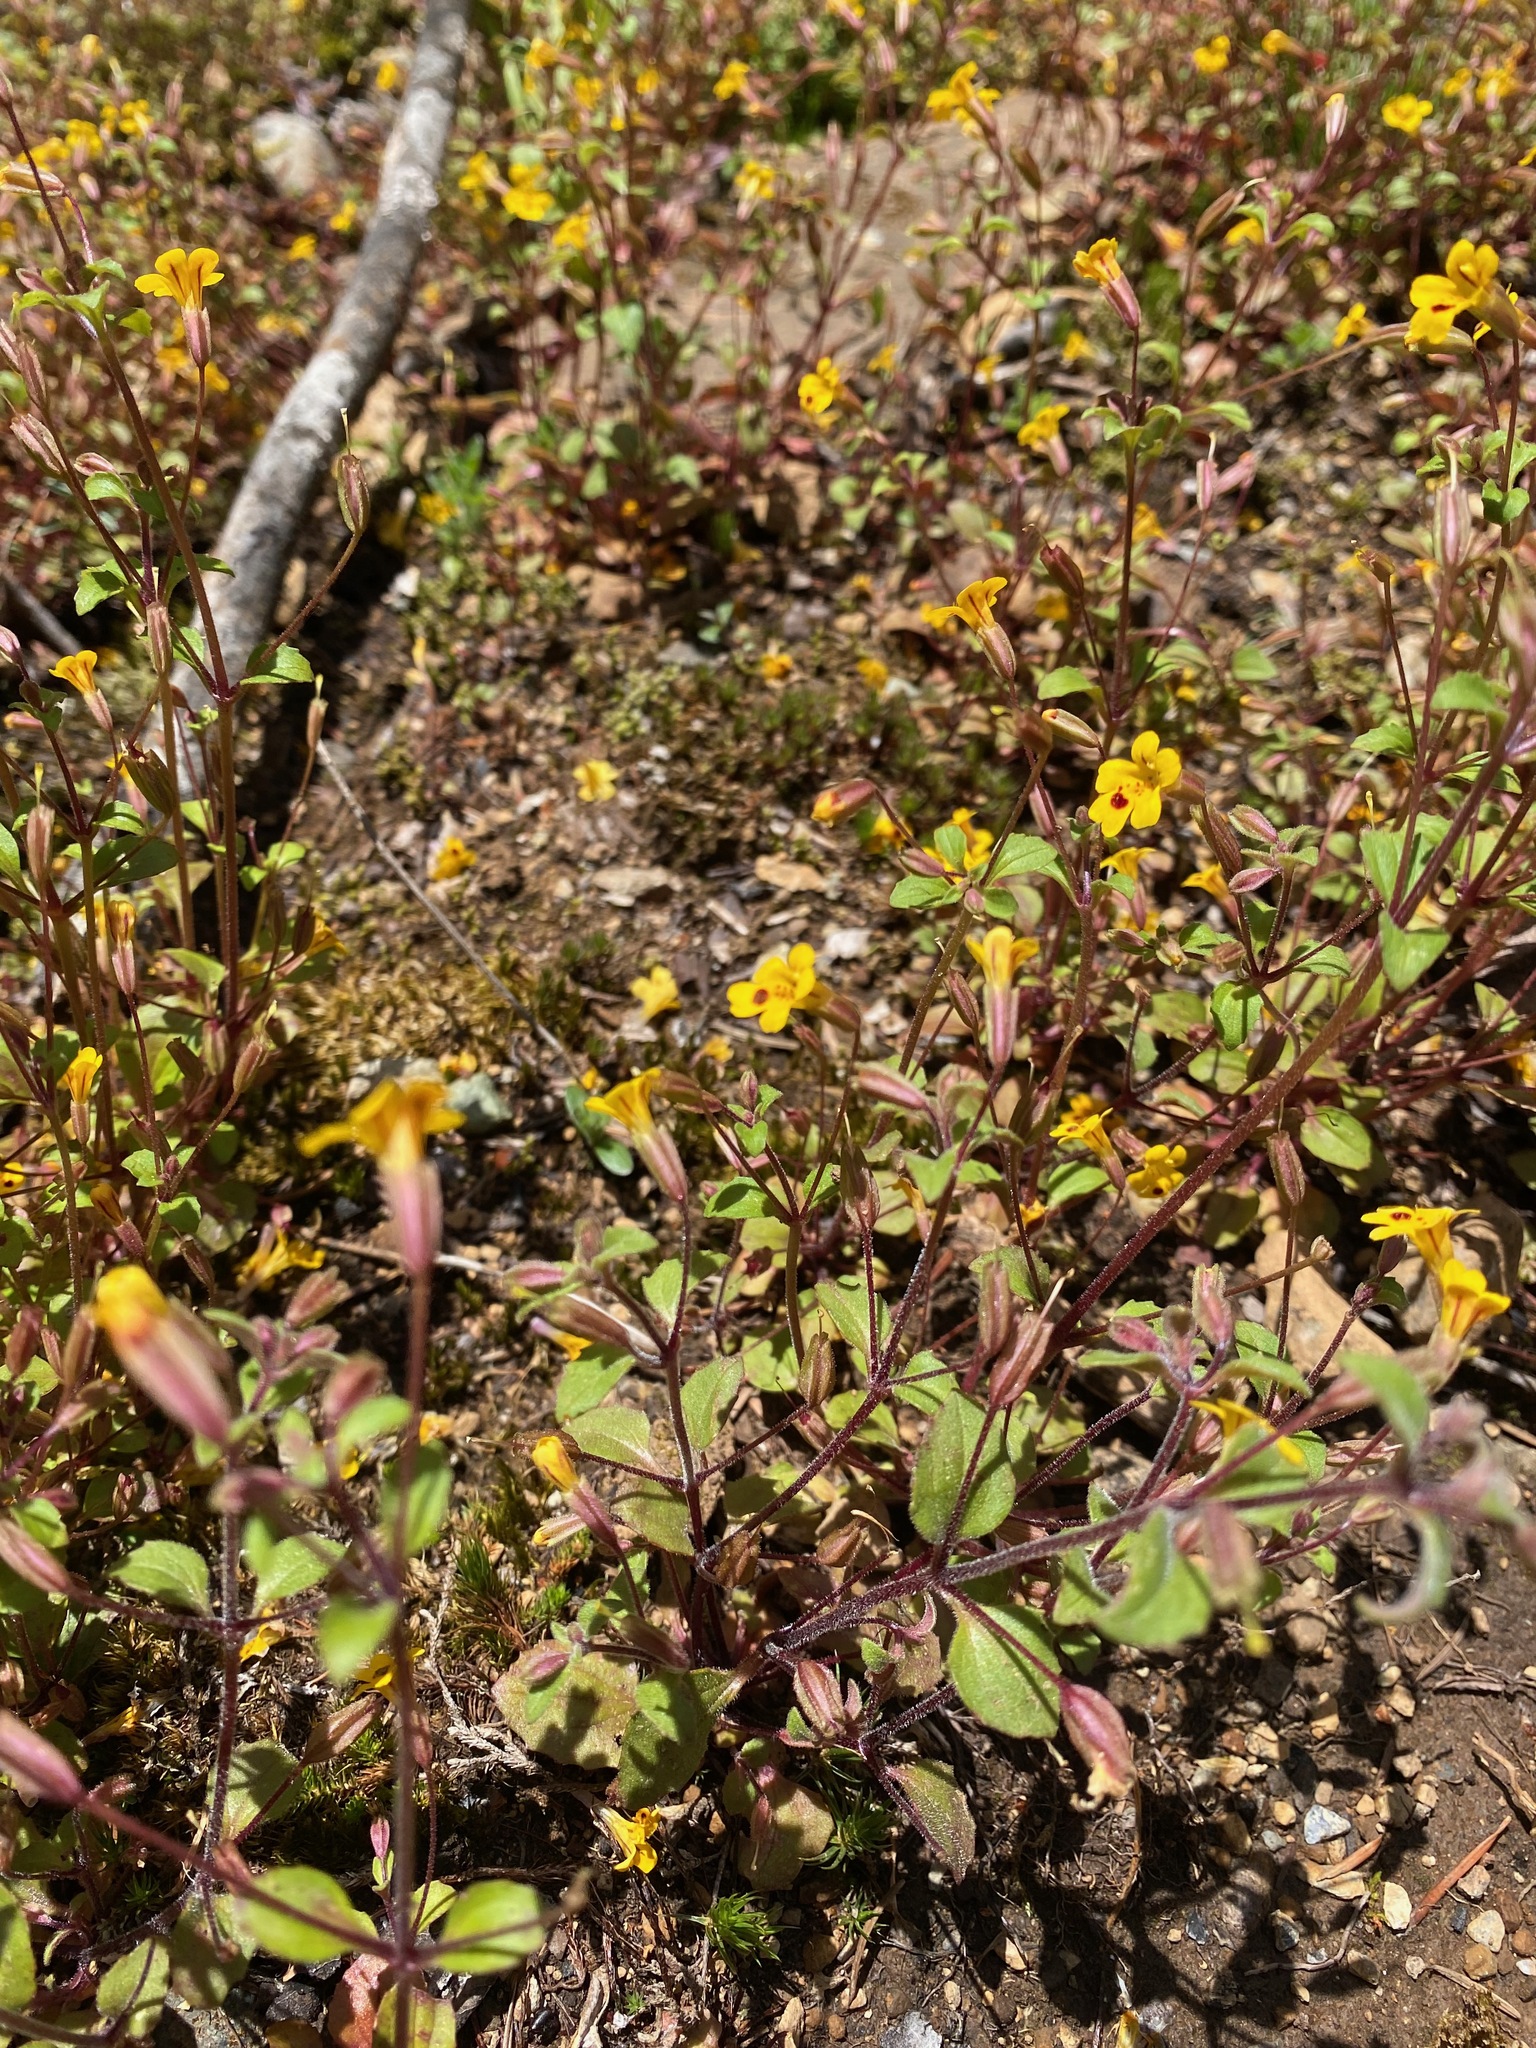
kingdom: Plantae
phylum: Tracheophyta
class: Magnoliopsida
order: Lamiales
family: Phrymaceae
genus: Erythranthe
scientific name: Erythranthe alsinoides
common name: Chickweed monkeyflower
